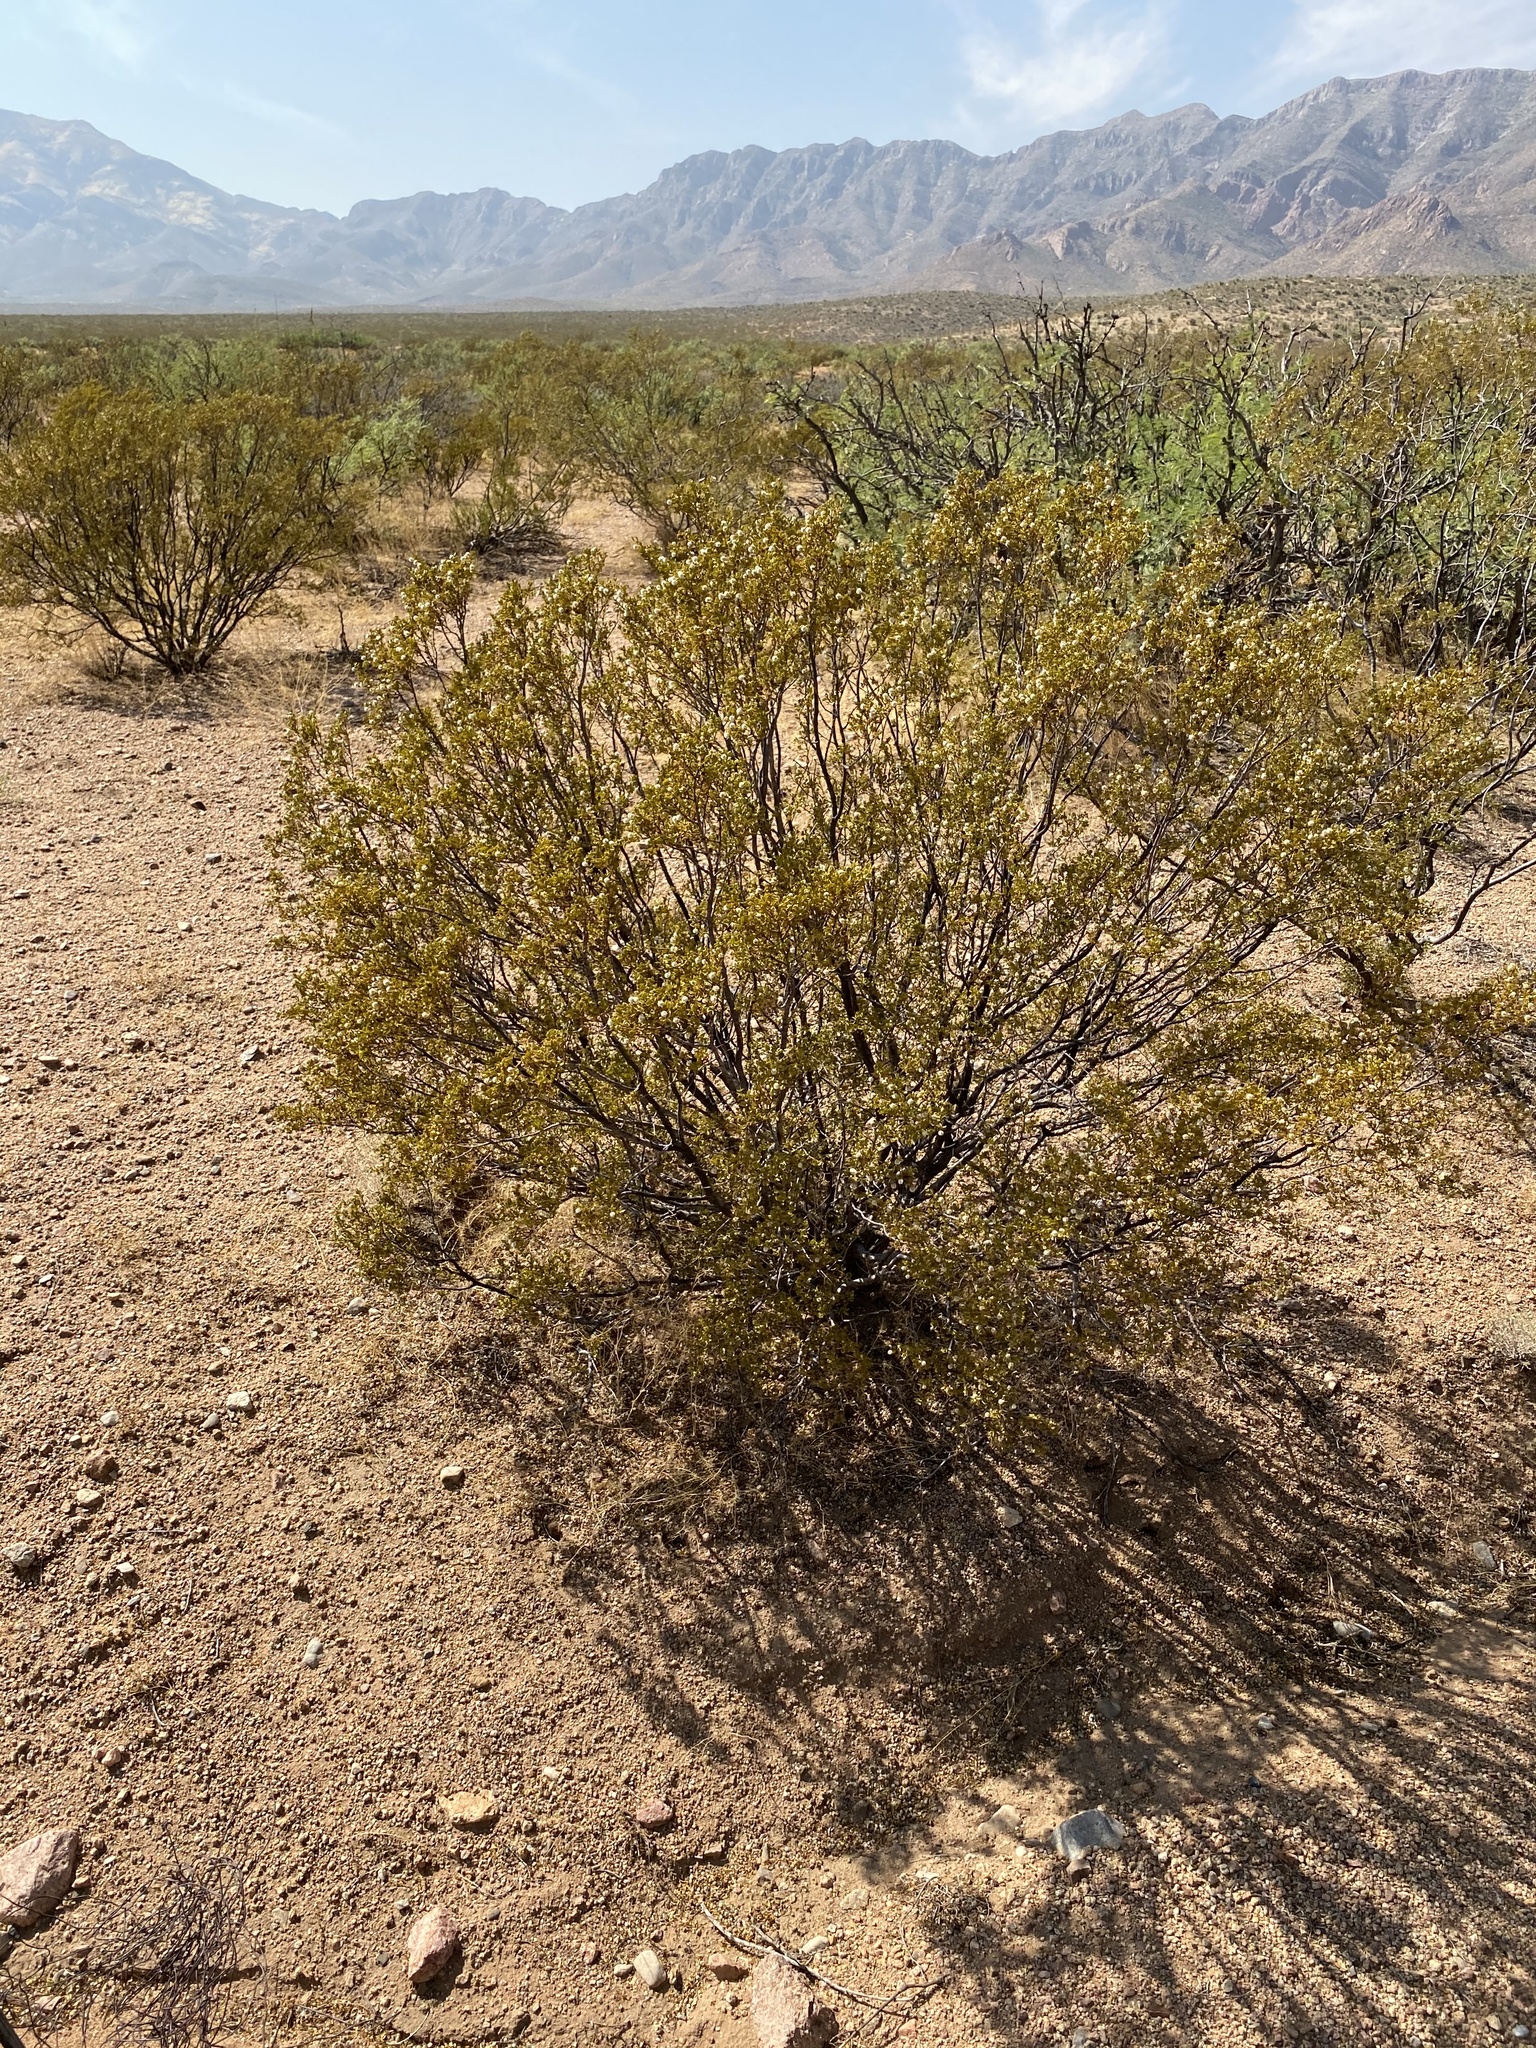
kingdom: Plantae
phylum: Tracheophyta
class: Magnoliopsida
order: Zygophyllales
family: Zygophyllaceae
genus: Larrea
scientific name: Larrea tridentata
